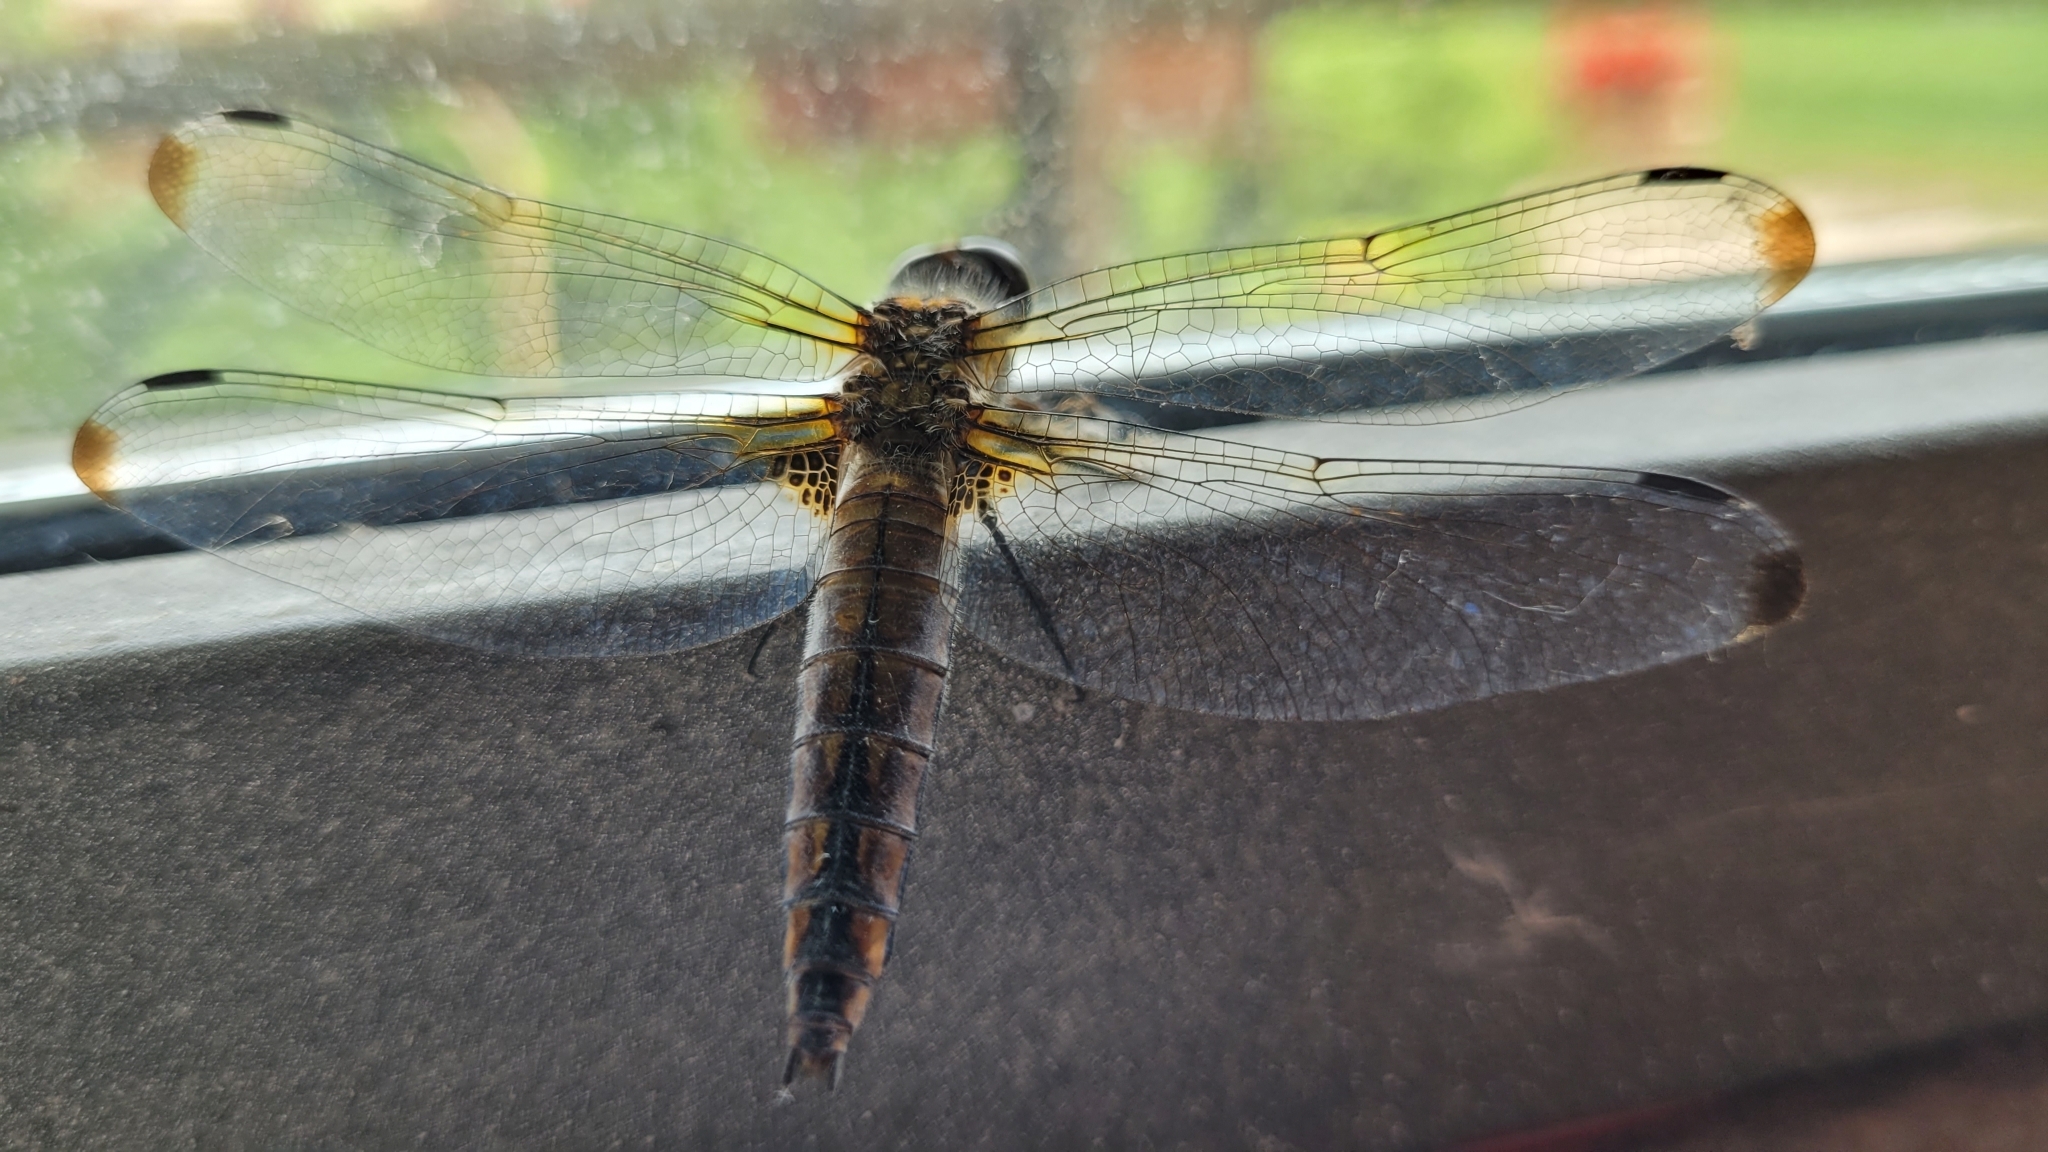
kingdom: Animalia
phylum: Arthropoda
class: Insecta
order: Odonata
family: Libellulidae
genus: Libellula
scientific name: Libellula fulva
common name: Blue chaser
